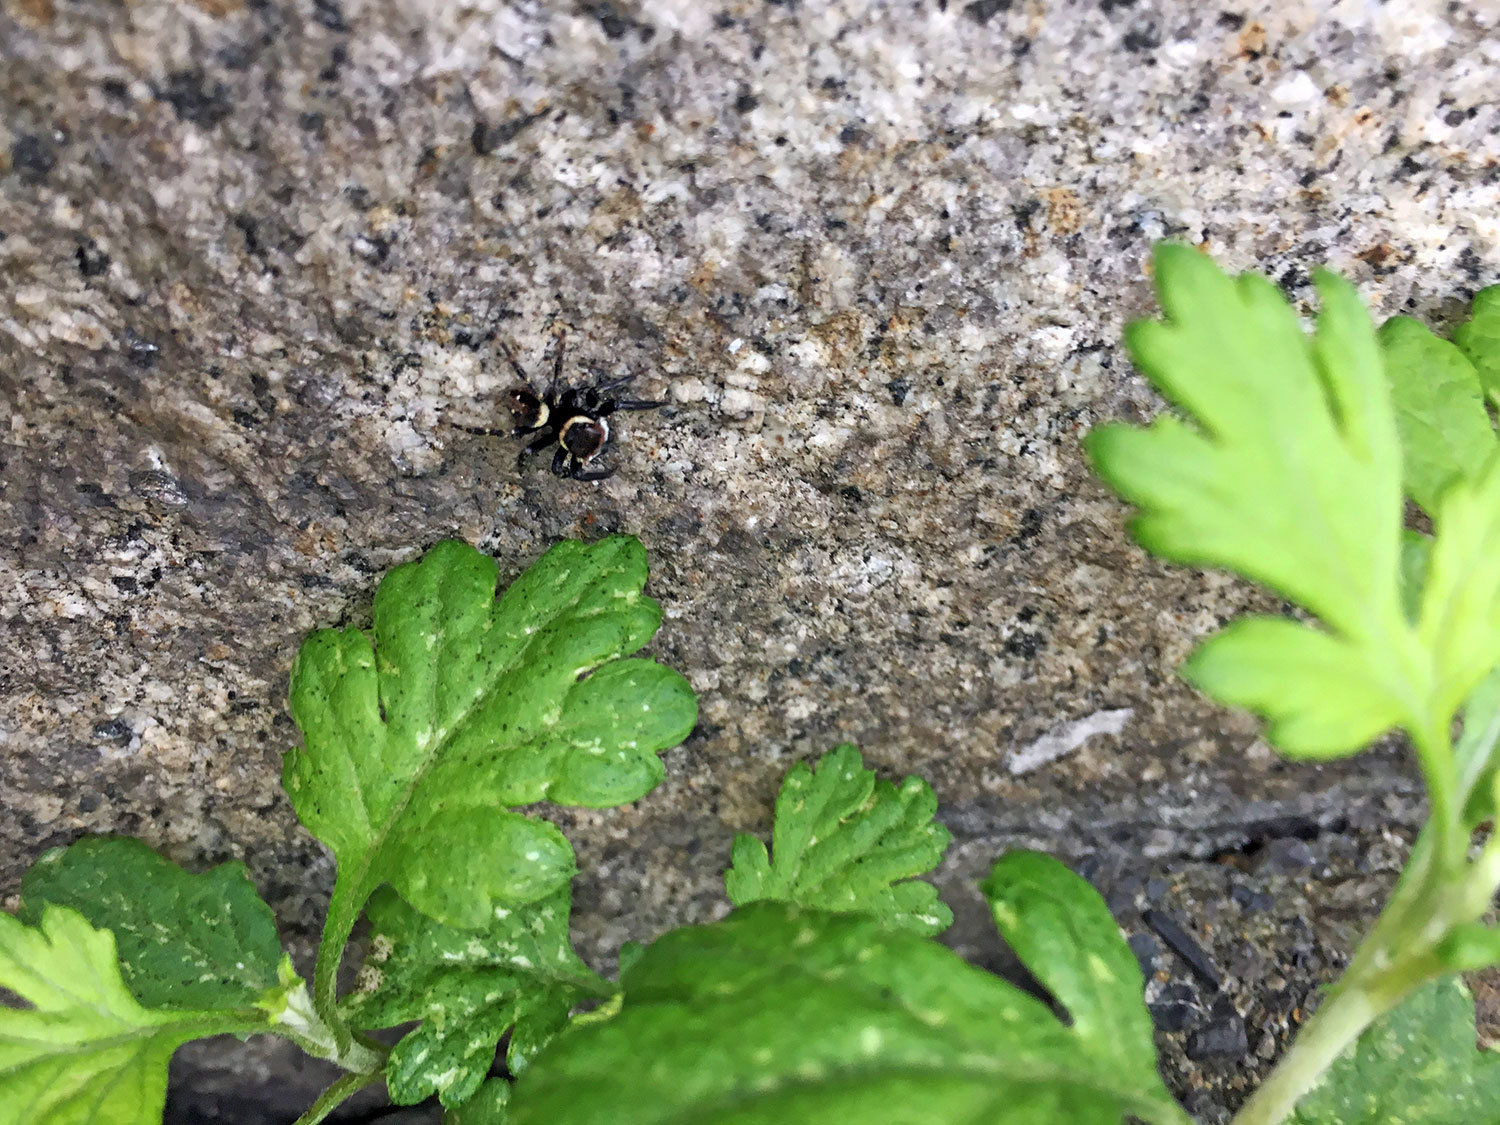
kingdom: Animalia
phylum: Arthropoda
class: Arachnida
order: Araneae
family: Salticidae
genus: Hasarius
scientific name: Hasarius adansoni
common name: Jumping spider
